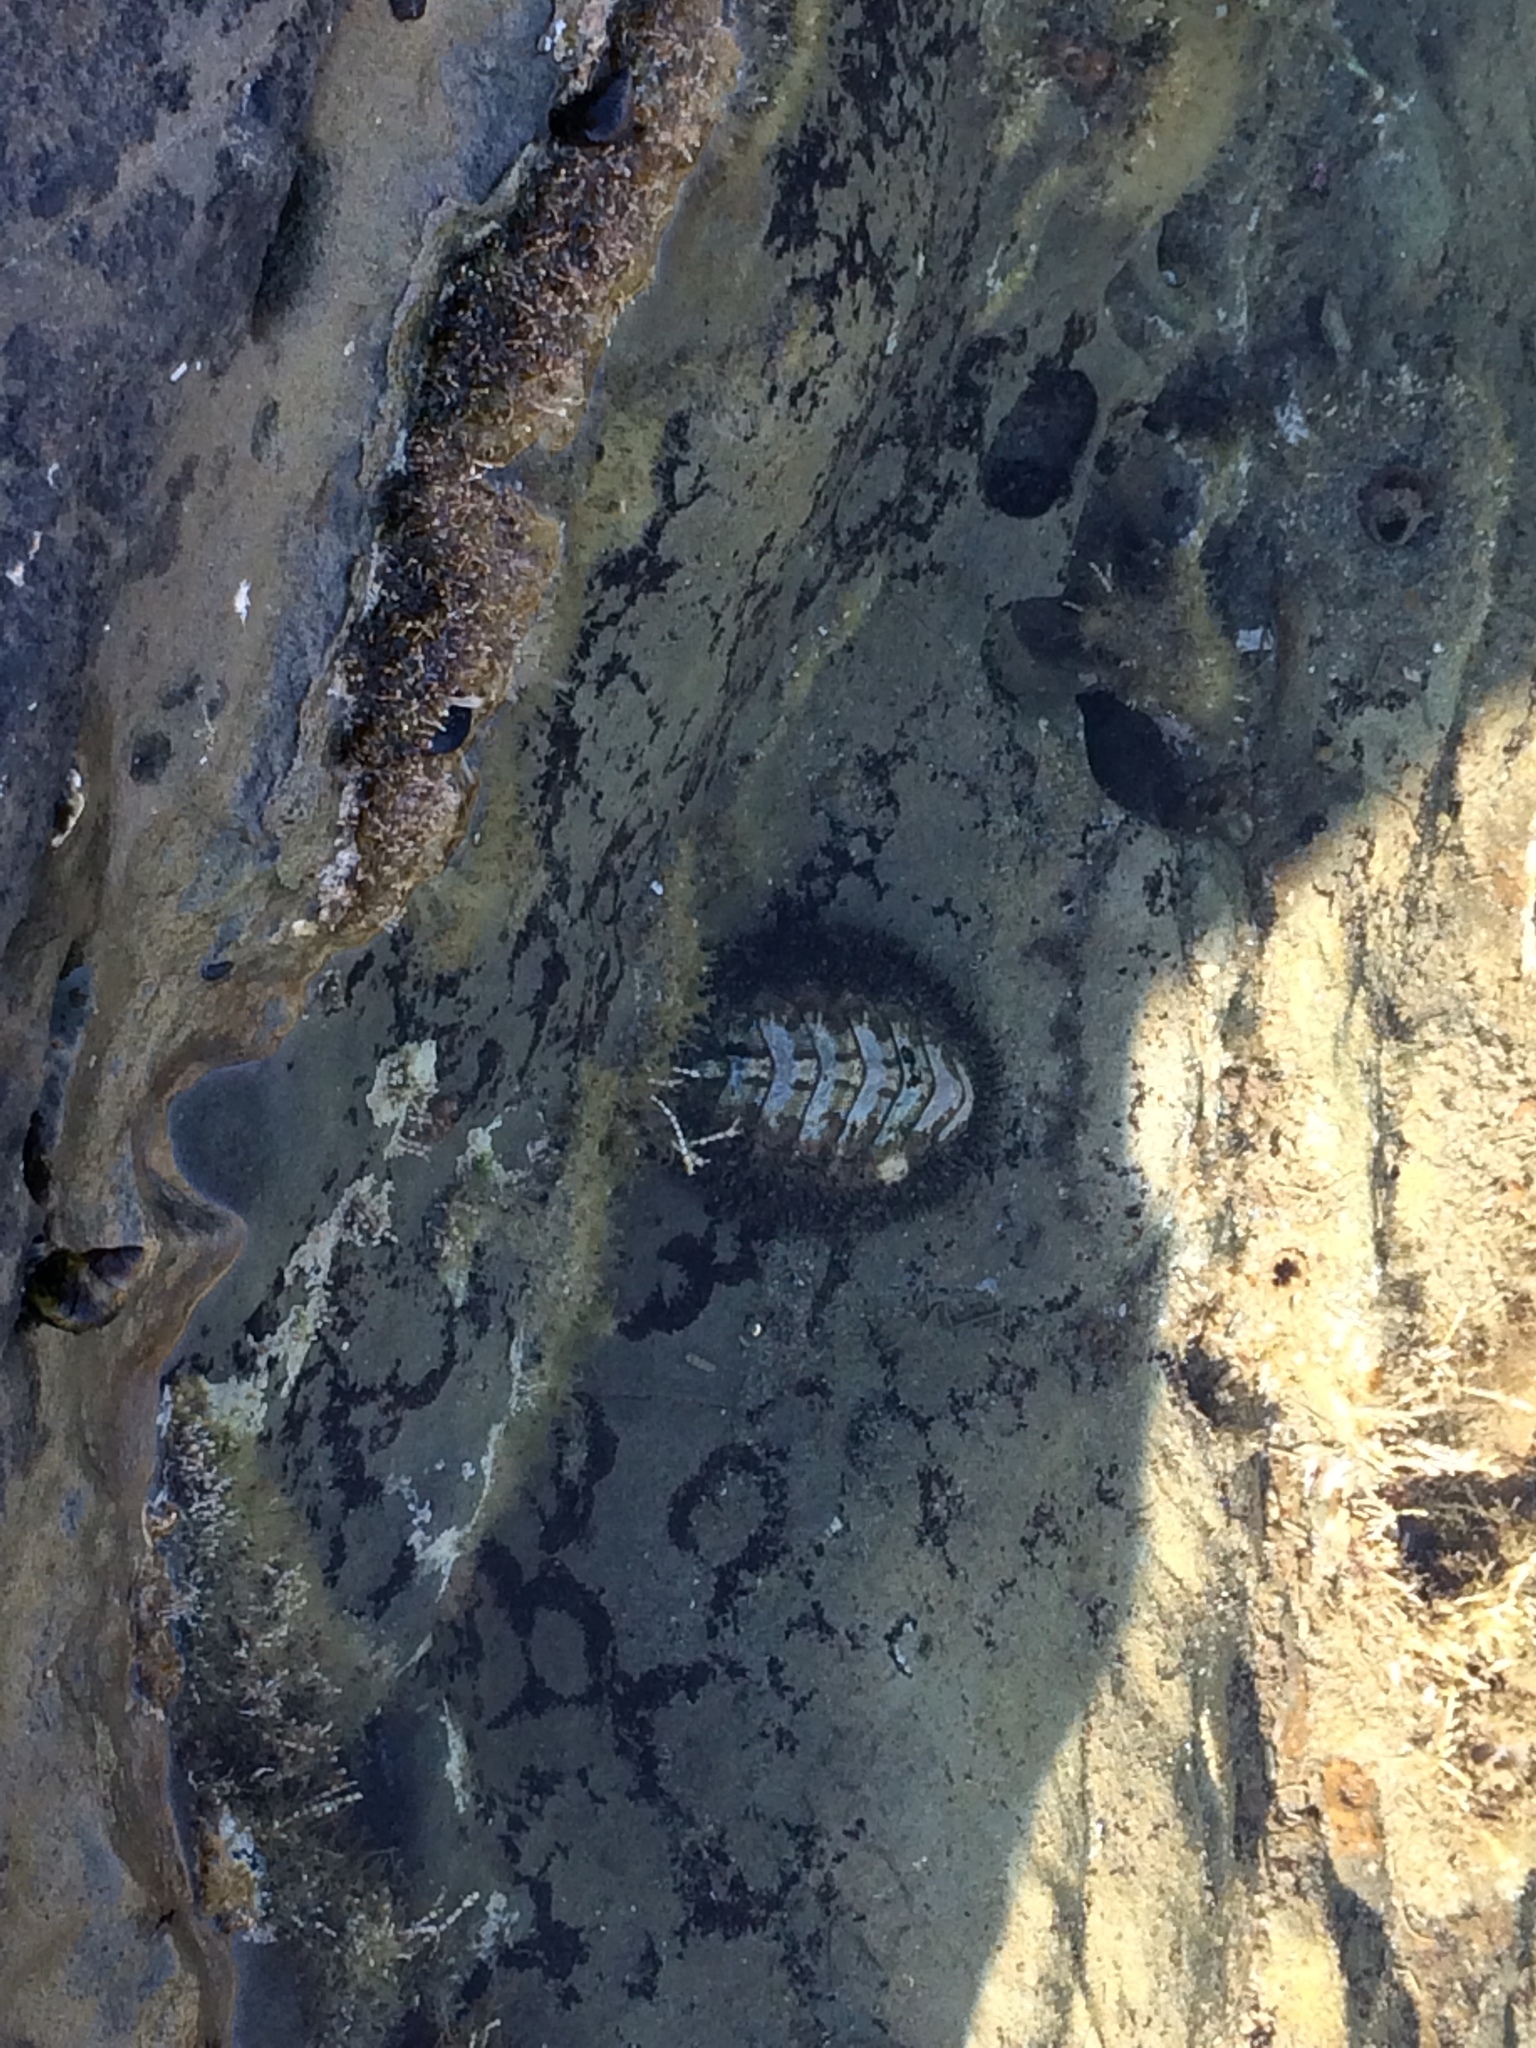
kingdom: Animalia
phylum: Mollusca
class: Polyplacophora
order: Chitonida
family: Mopaliidae
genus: Mopalia
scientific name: Mopalia muscosa
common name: Mossy chiton
